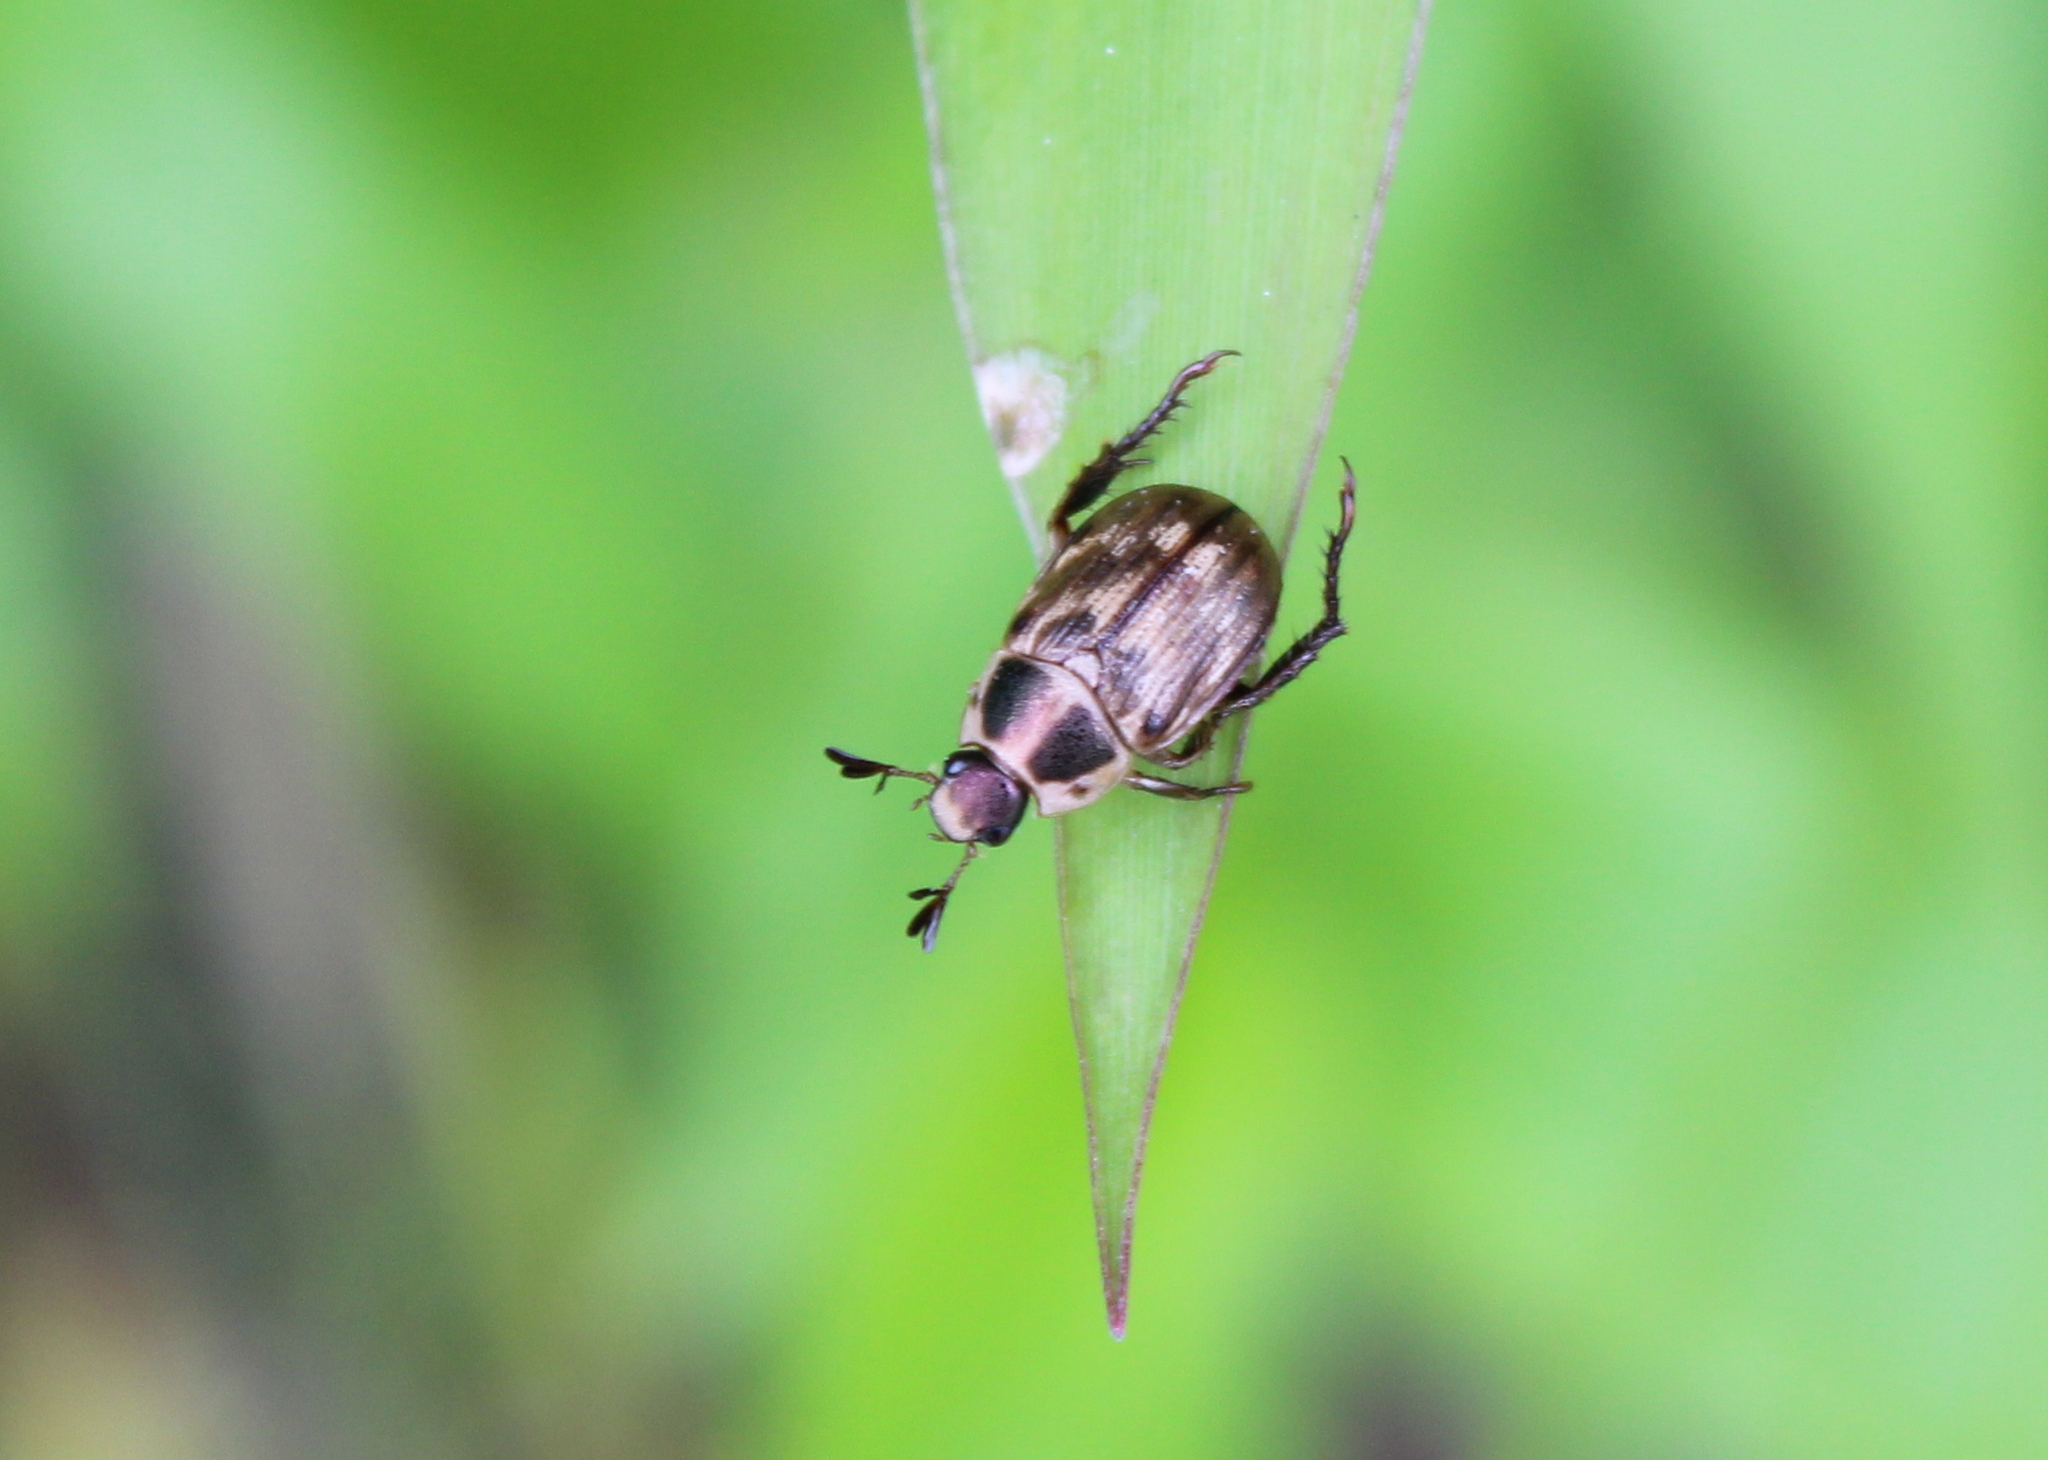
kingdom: Animalia
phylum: Arthropoda
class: Insecta
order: Coleoptera
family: Scarabaeidae
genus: Exomala
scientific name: Exomala orientalis
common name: Oriental beetle
